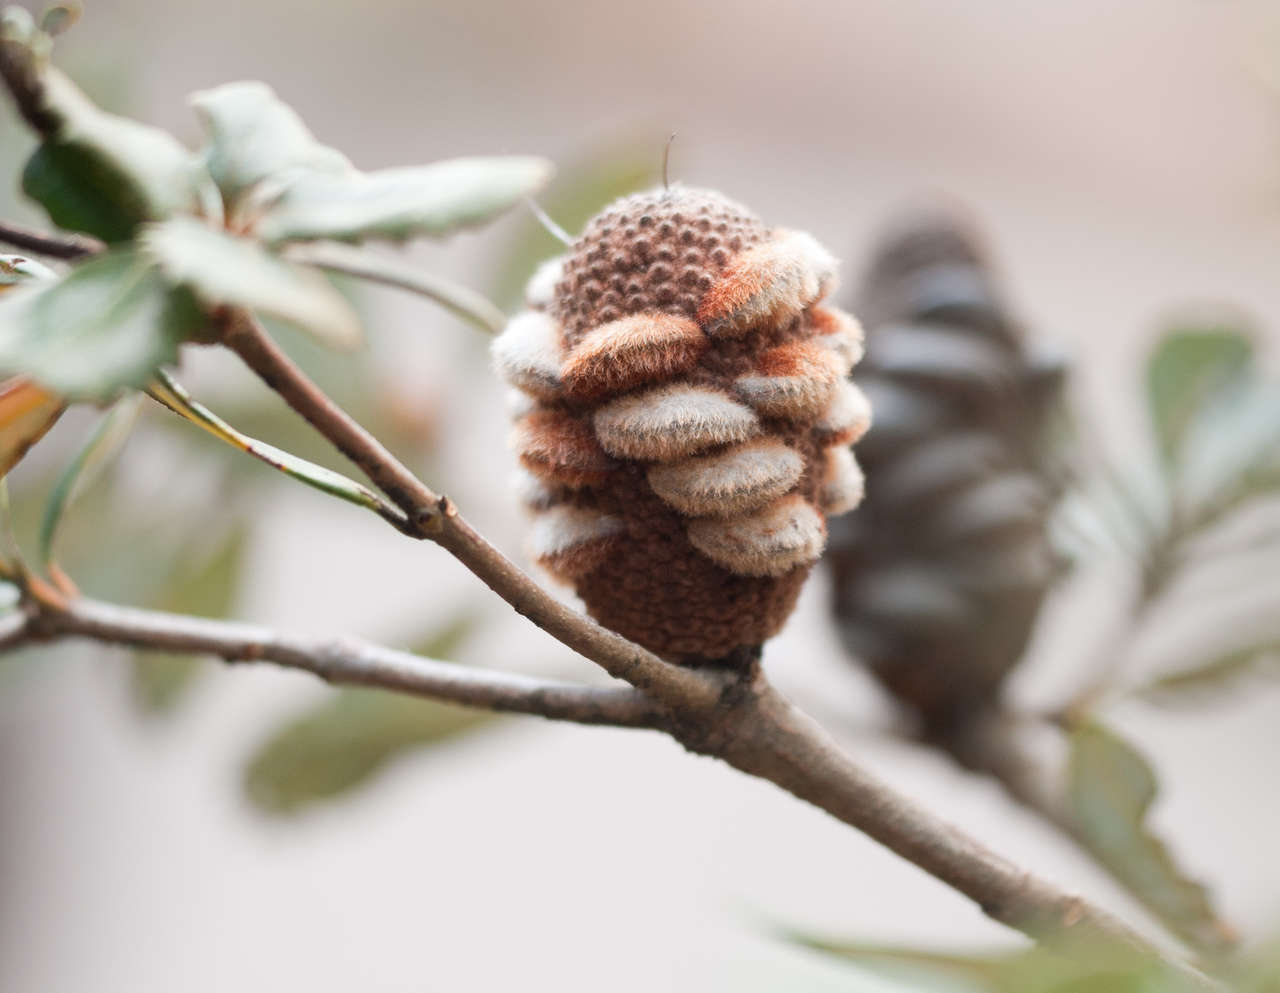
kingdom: Plantae
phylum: Tracheophyta
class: Magnoliopsida
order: Proteales
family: Proteaceae
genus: Banksia
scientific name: Banksia saxicola
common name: Grampians banksia
